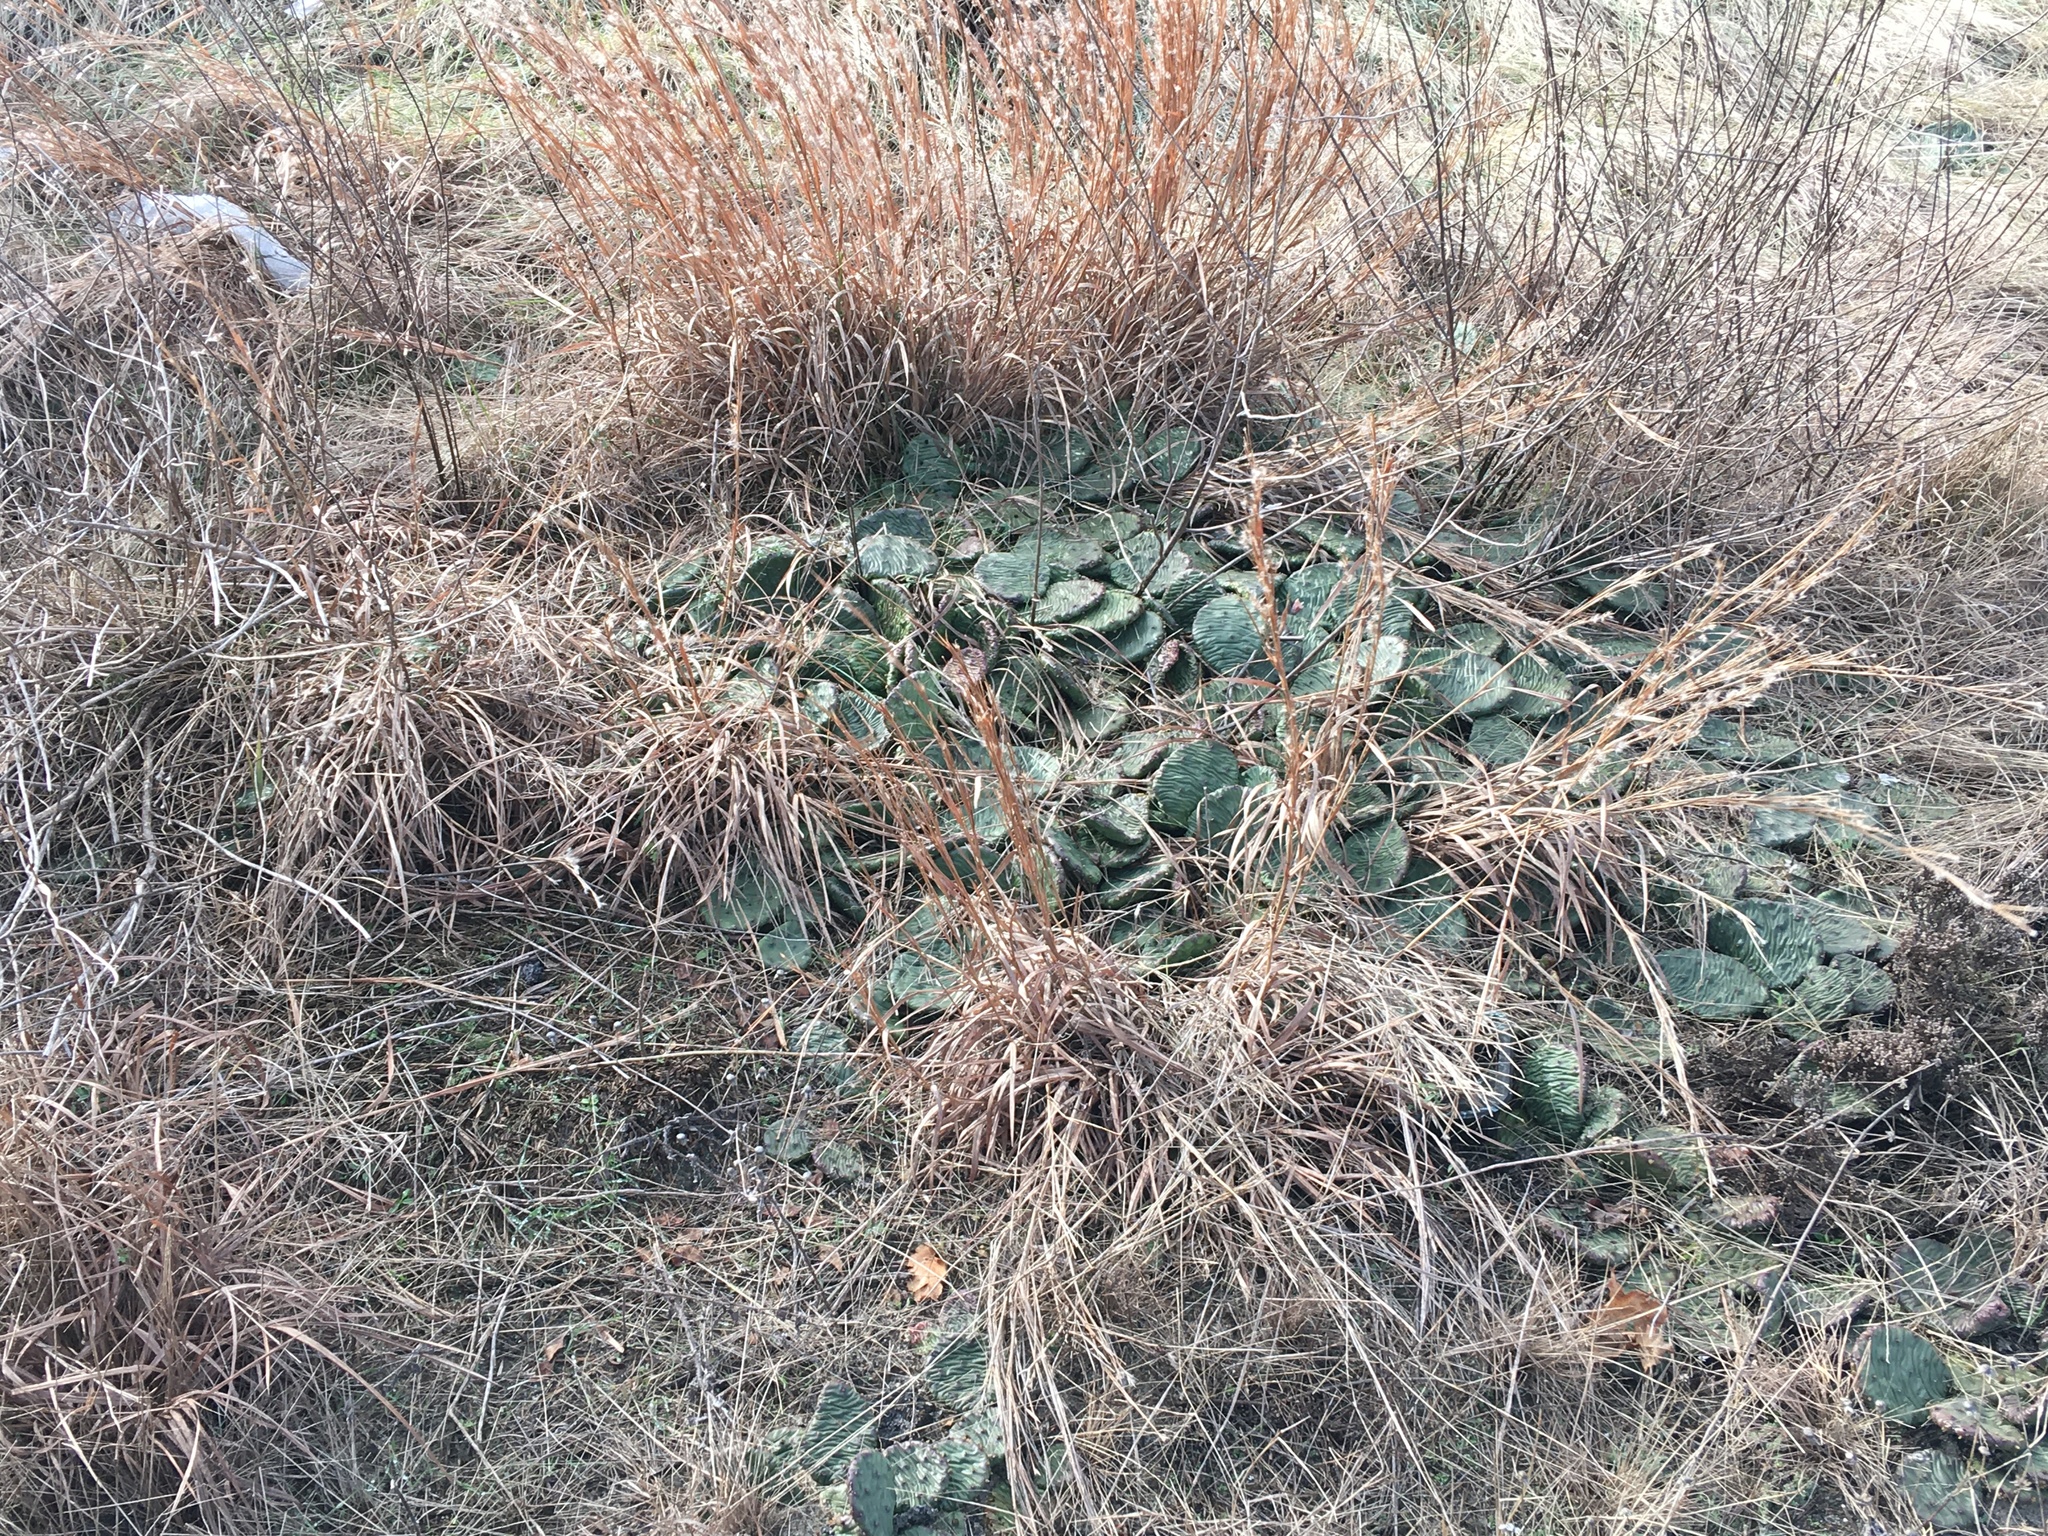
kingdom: Plantae
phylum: Tracheophyta
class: Magnoliopsida
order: Caryophyllales
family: Cactaceae
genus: Opuntia
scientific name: Opuntia humifusa
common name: Eastern prickly-pear
